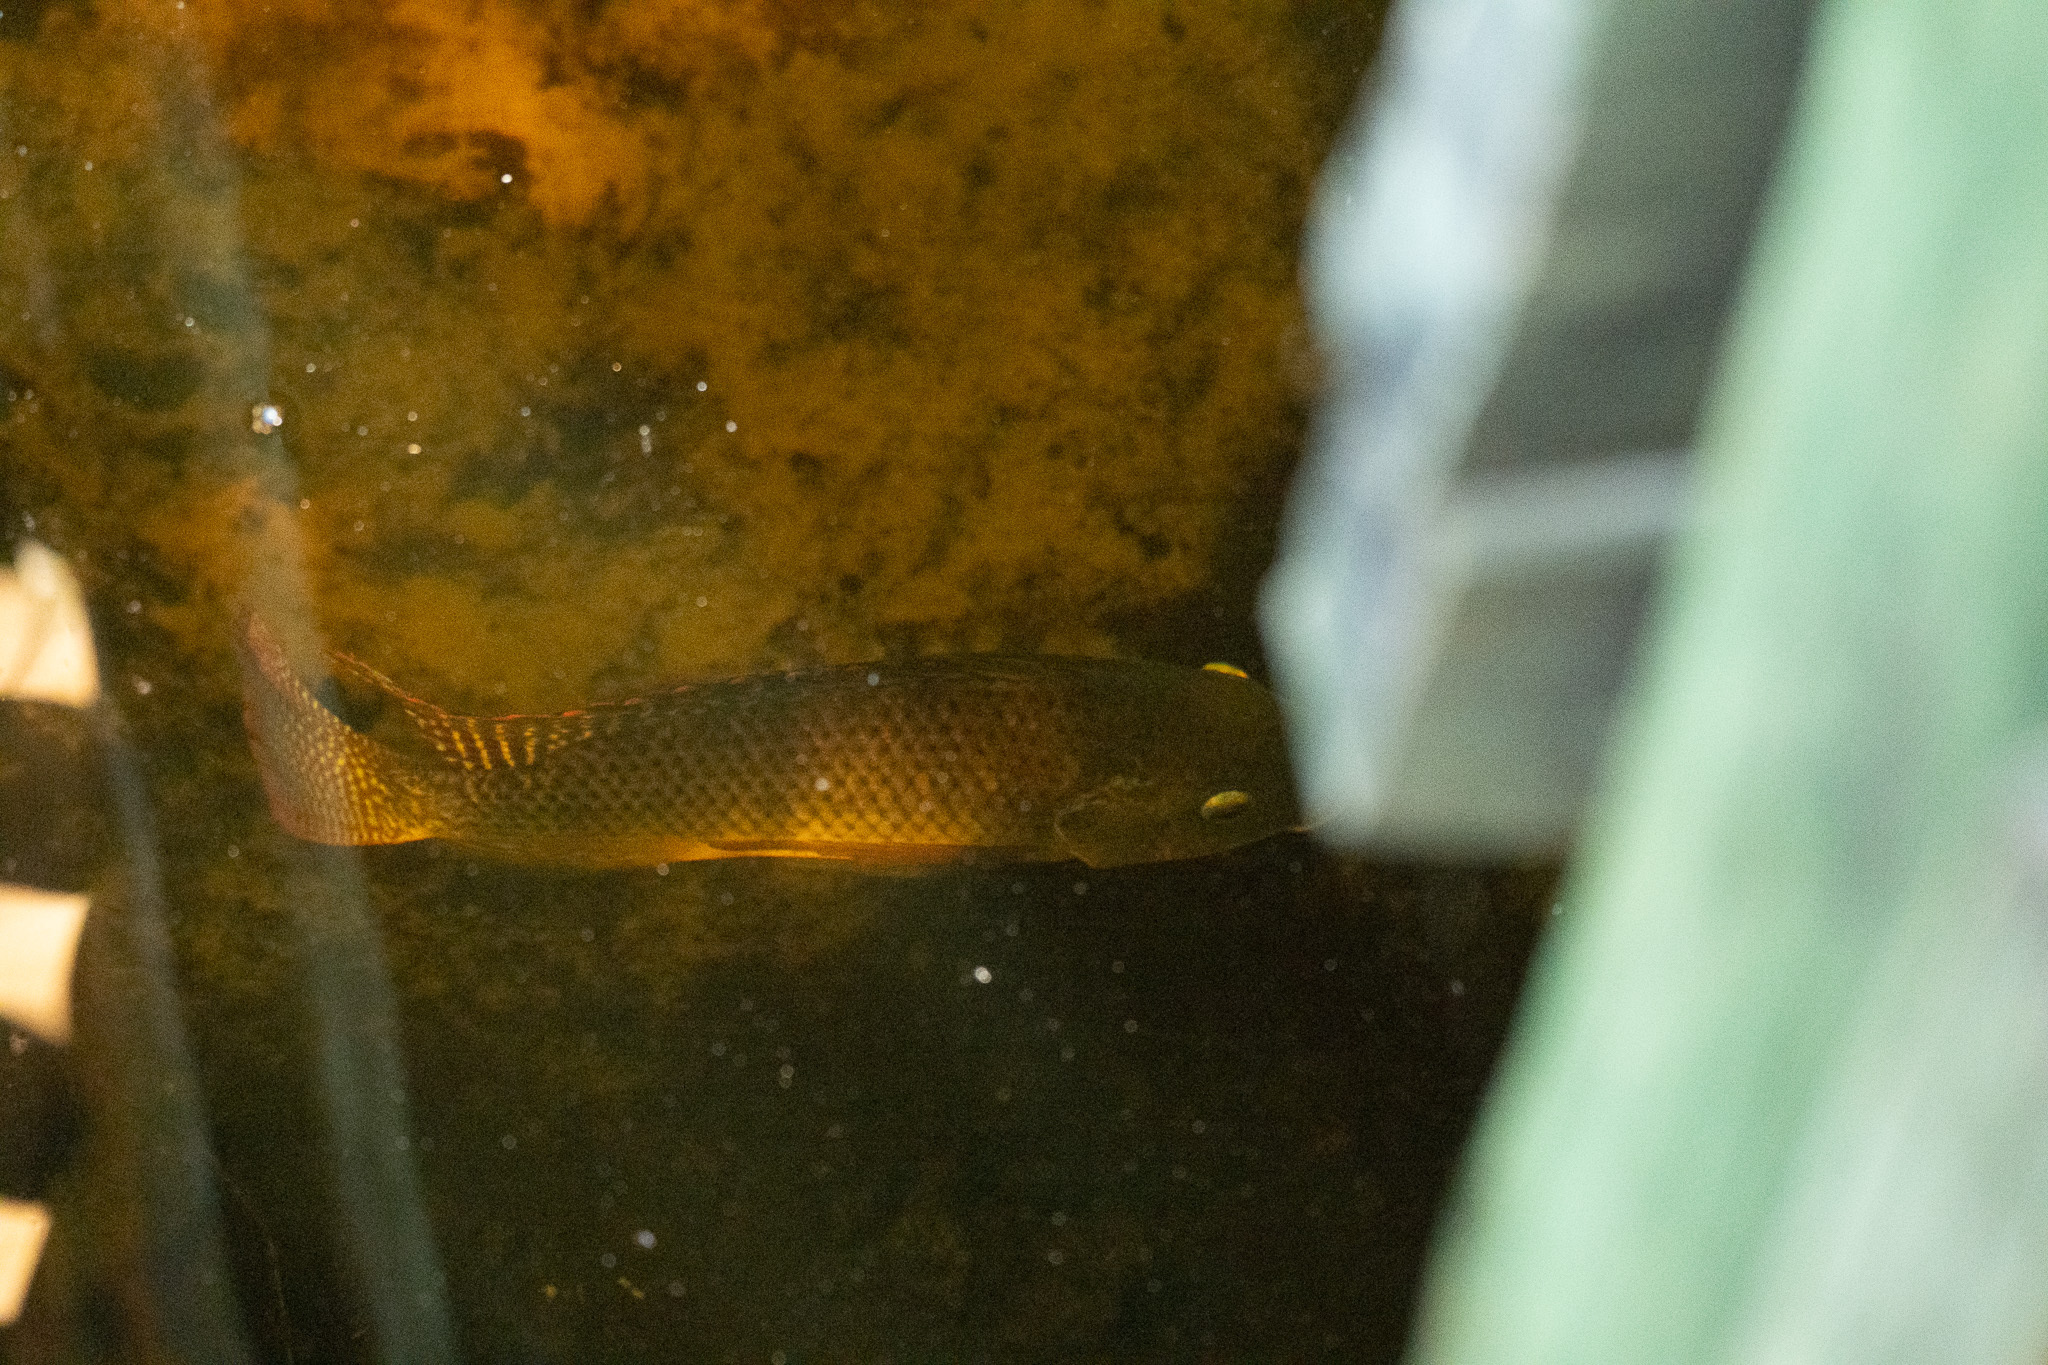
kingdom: Animalia
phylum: Chordata
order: Perciformes
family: Cichlidae
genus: Oreochromis
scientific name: Oreochromis aureus
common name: Blue tilapia
